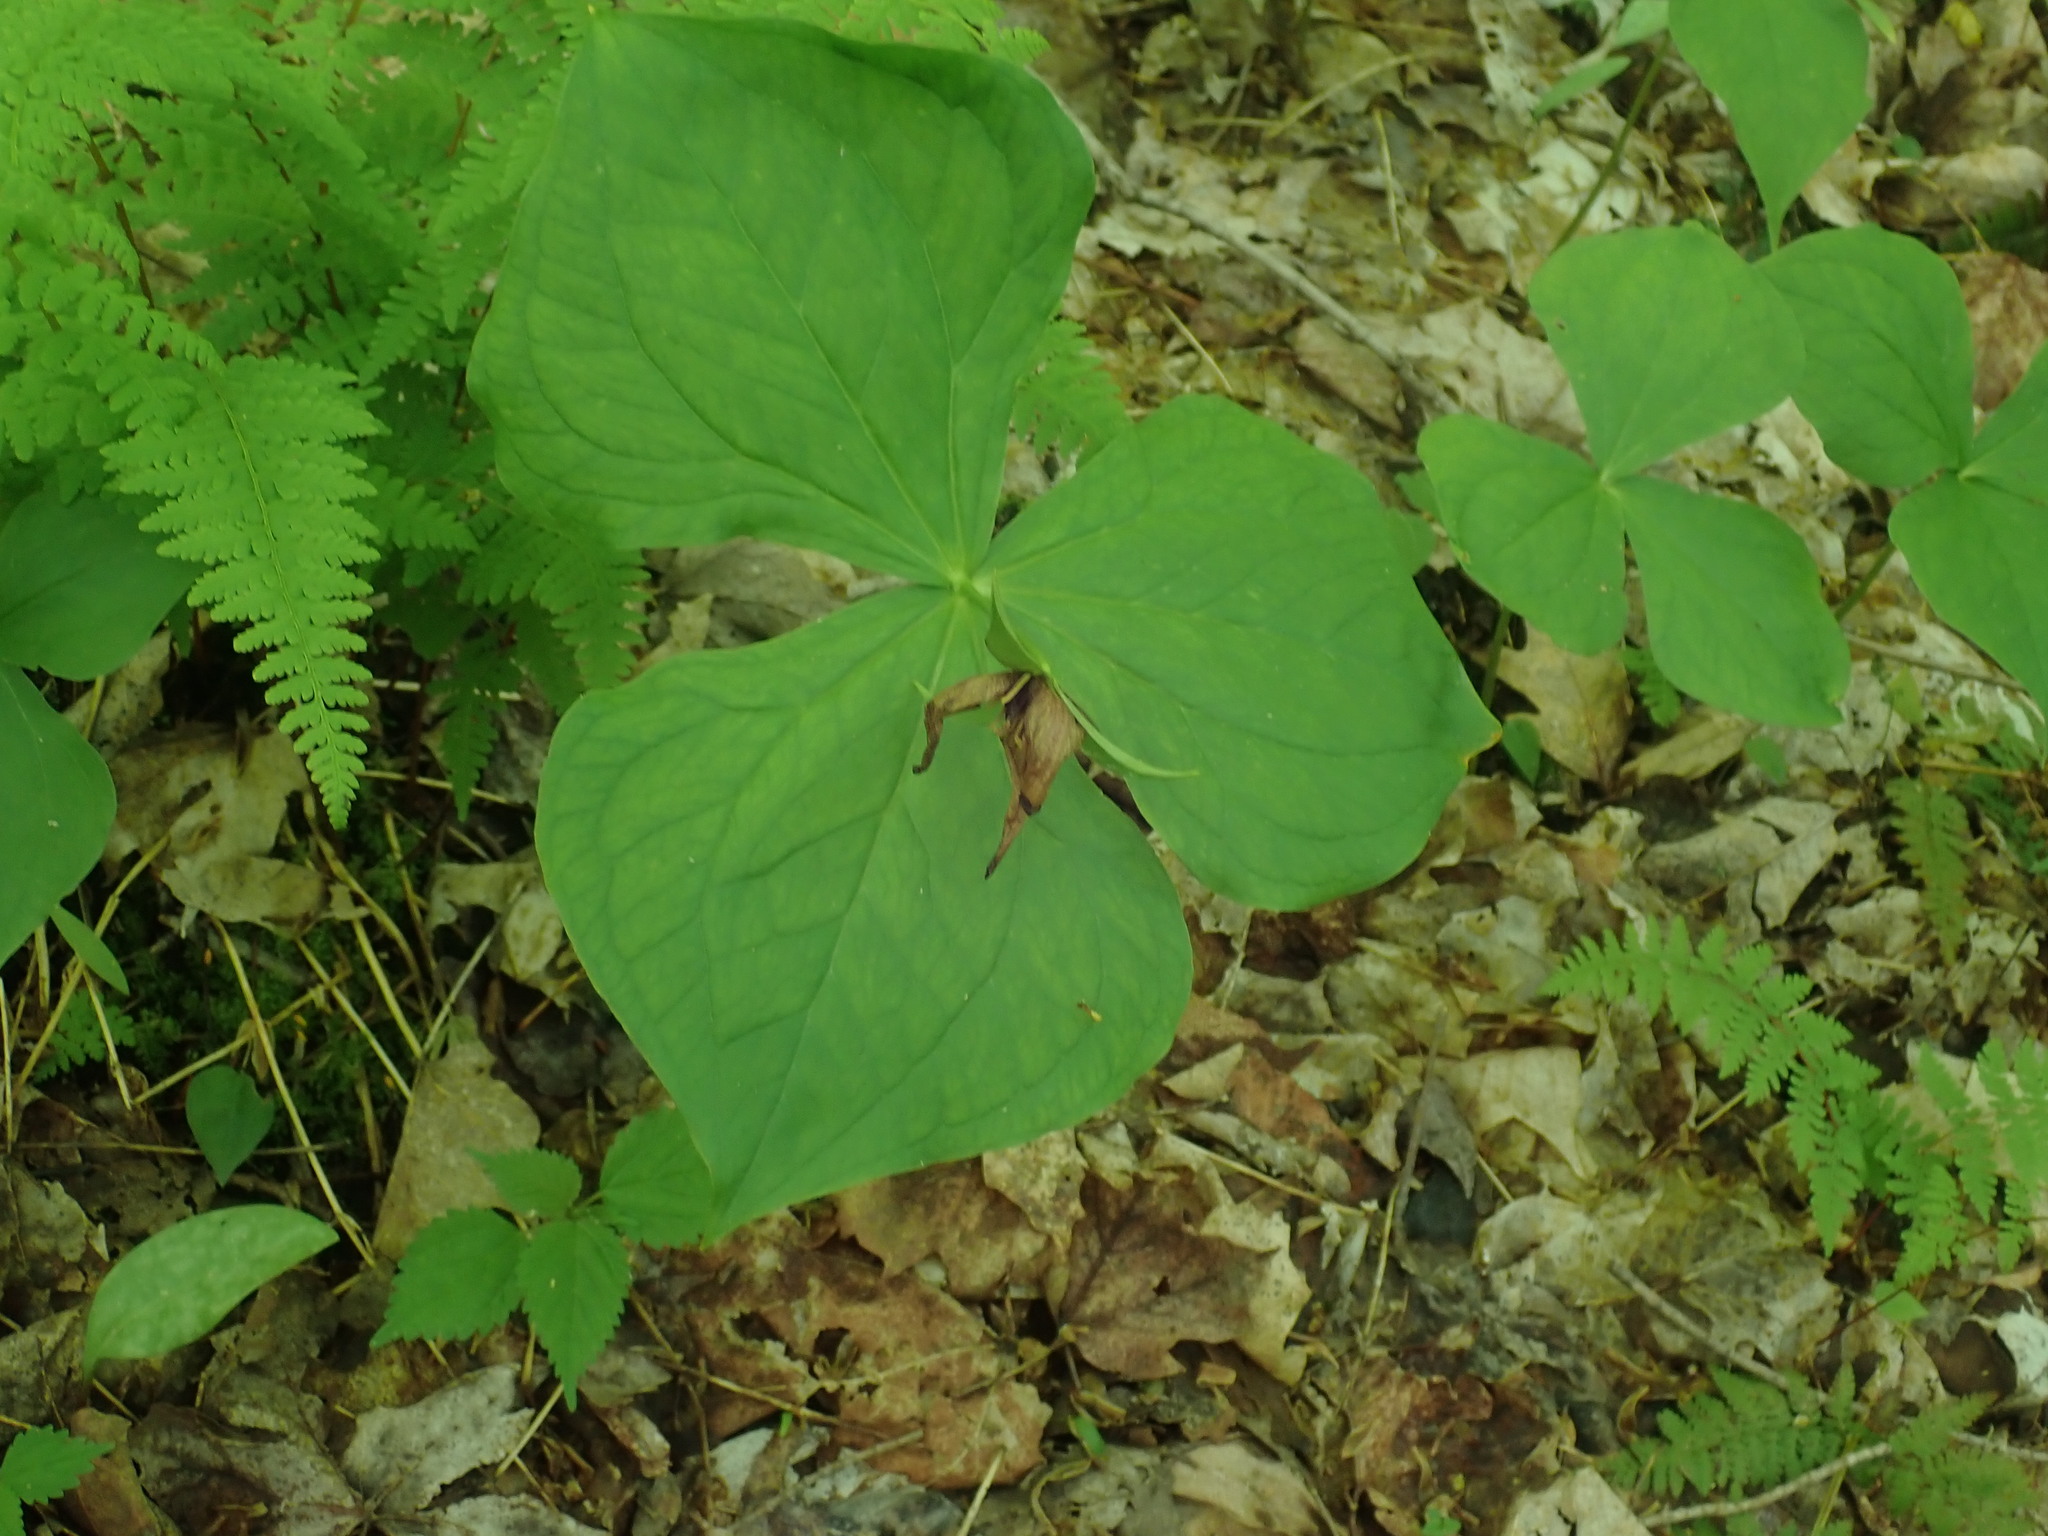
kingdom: Plantae
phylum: Tracheophyta
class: Liliopsida
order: Liliales
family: Melanthiaceae
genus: Trillium
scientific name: Trillium erectum
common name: Purple trillium
